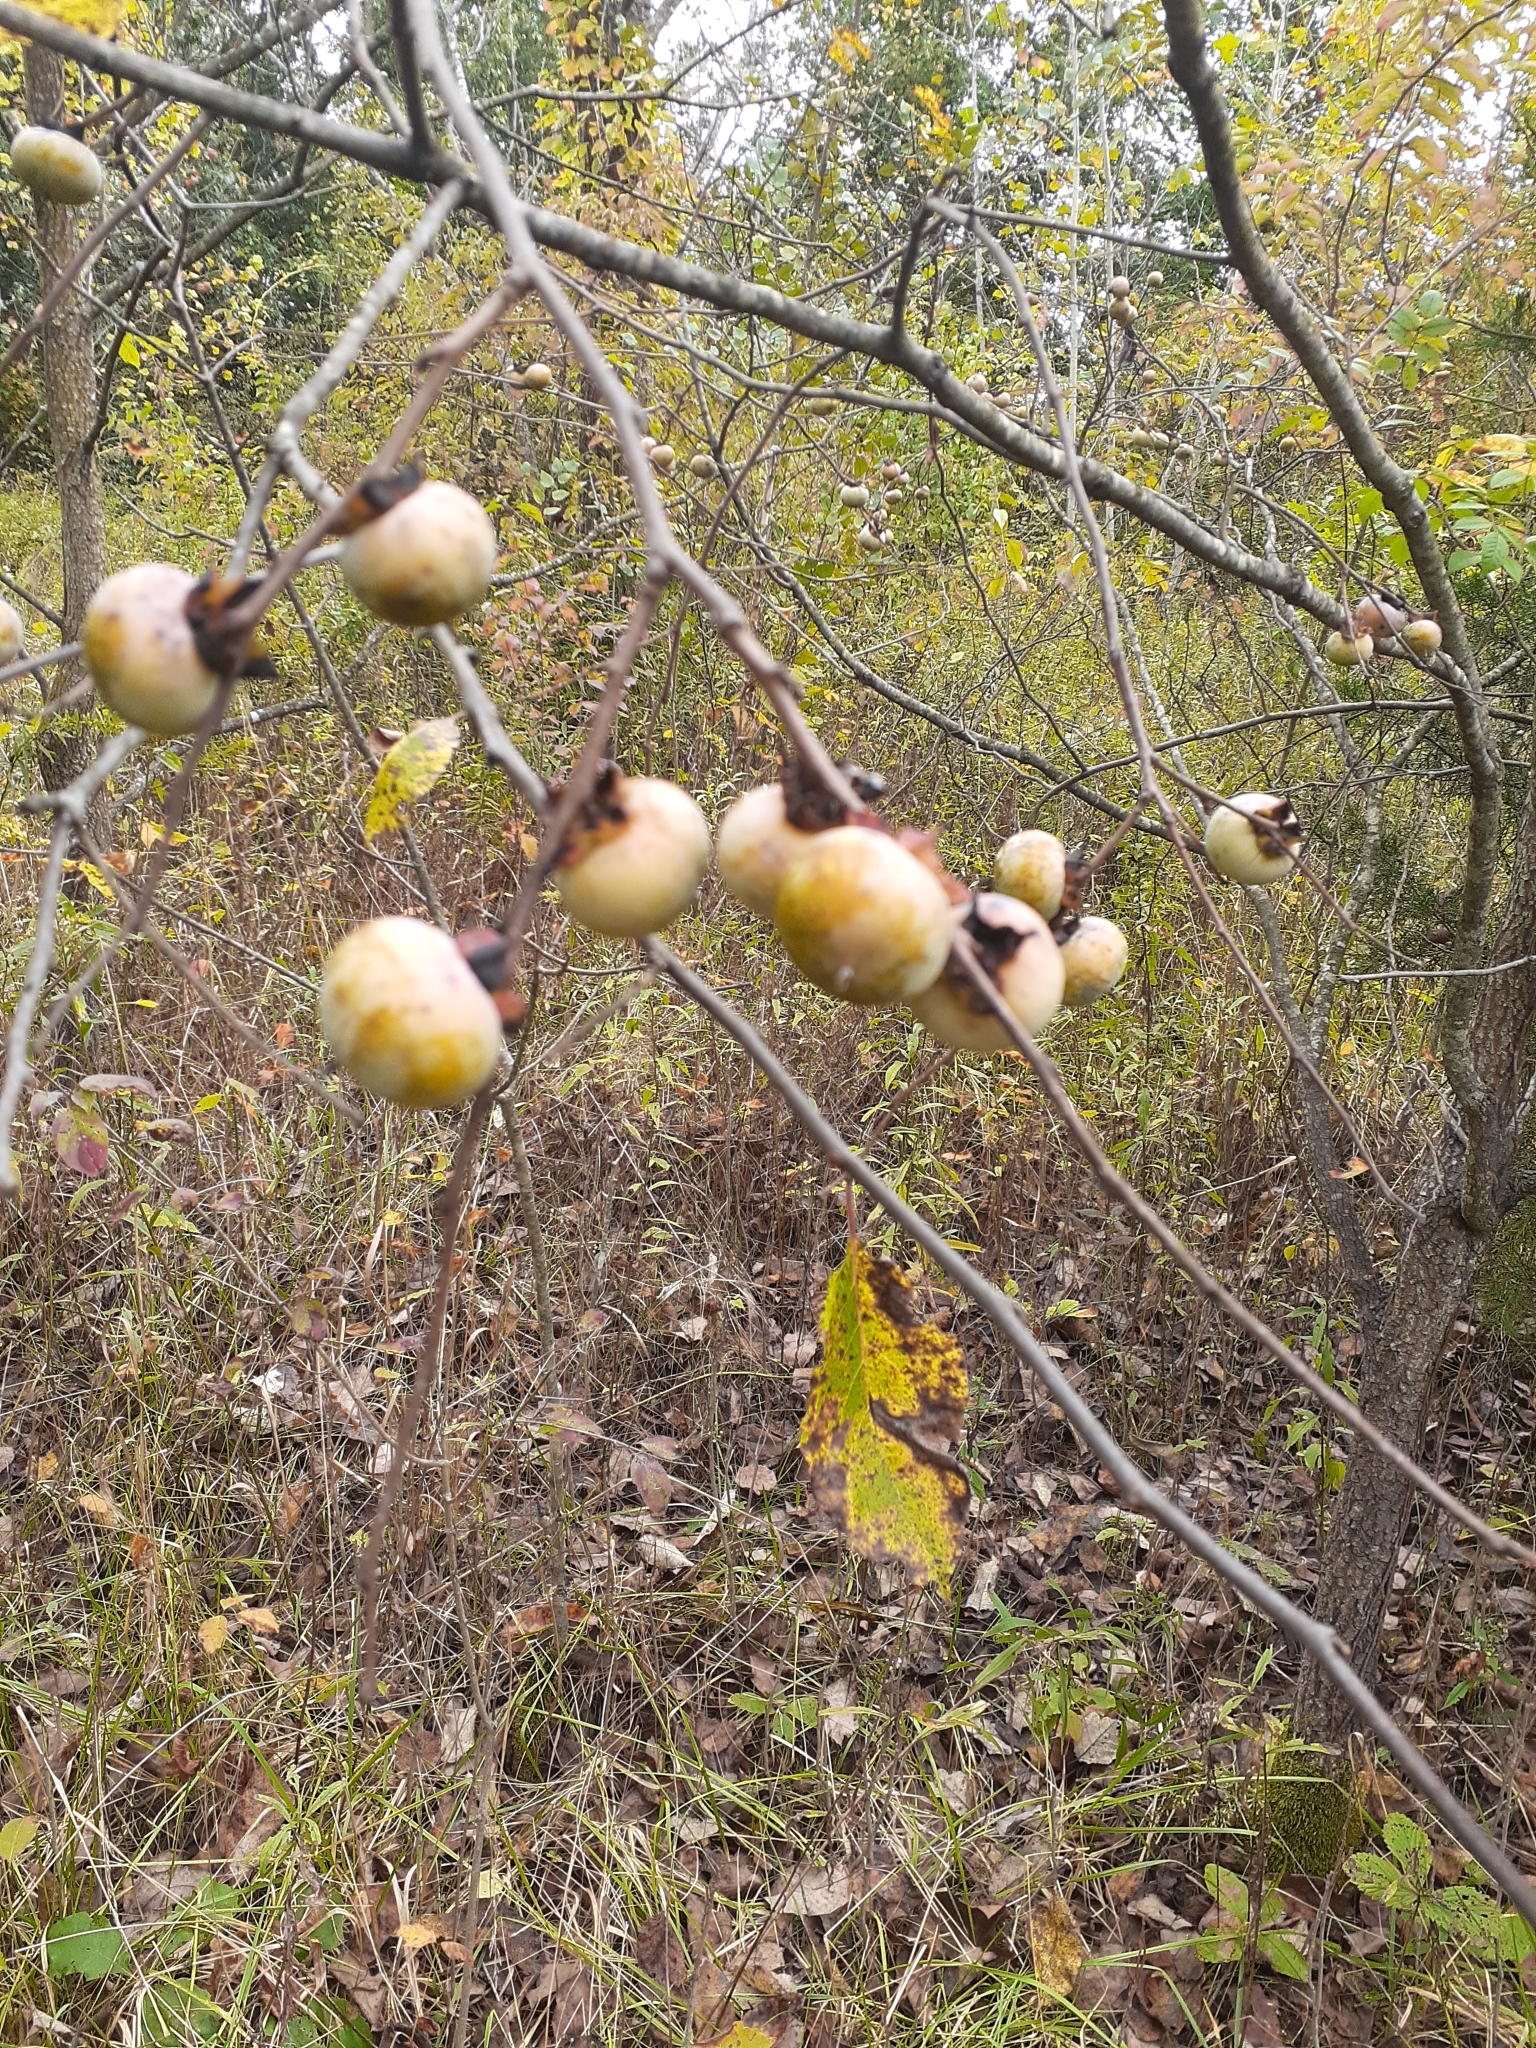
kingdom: Plantae
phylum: Tracheophyta
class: Magnoliopsida
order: Ericales
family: Ebenaceae
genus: Diospyros
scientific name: Diospyros virginiana
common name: Persimmon
